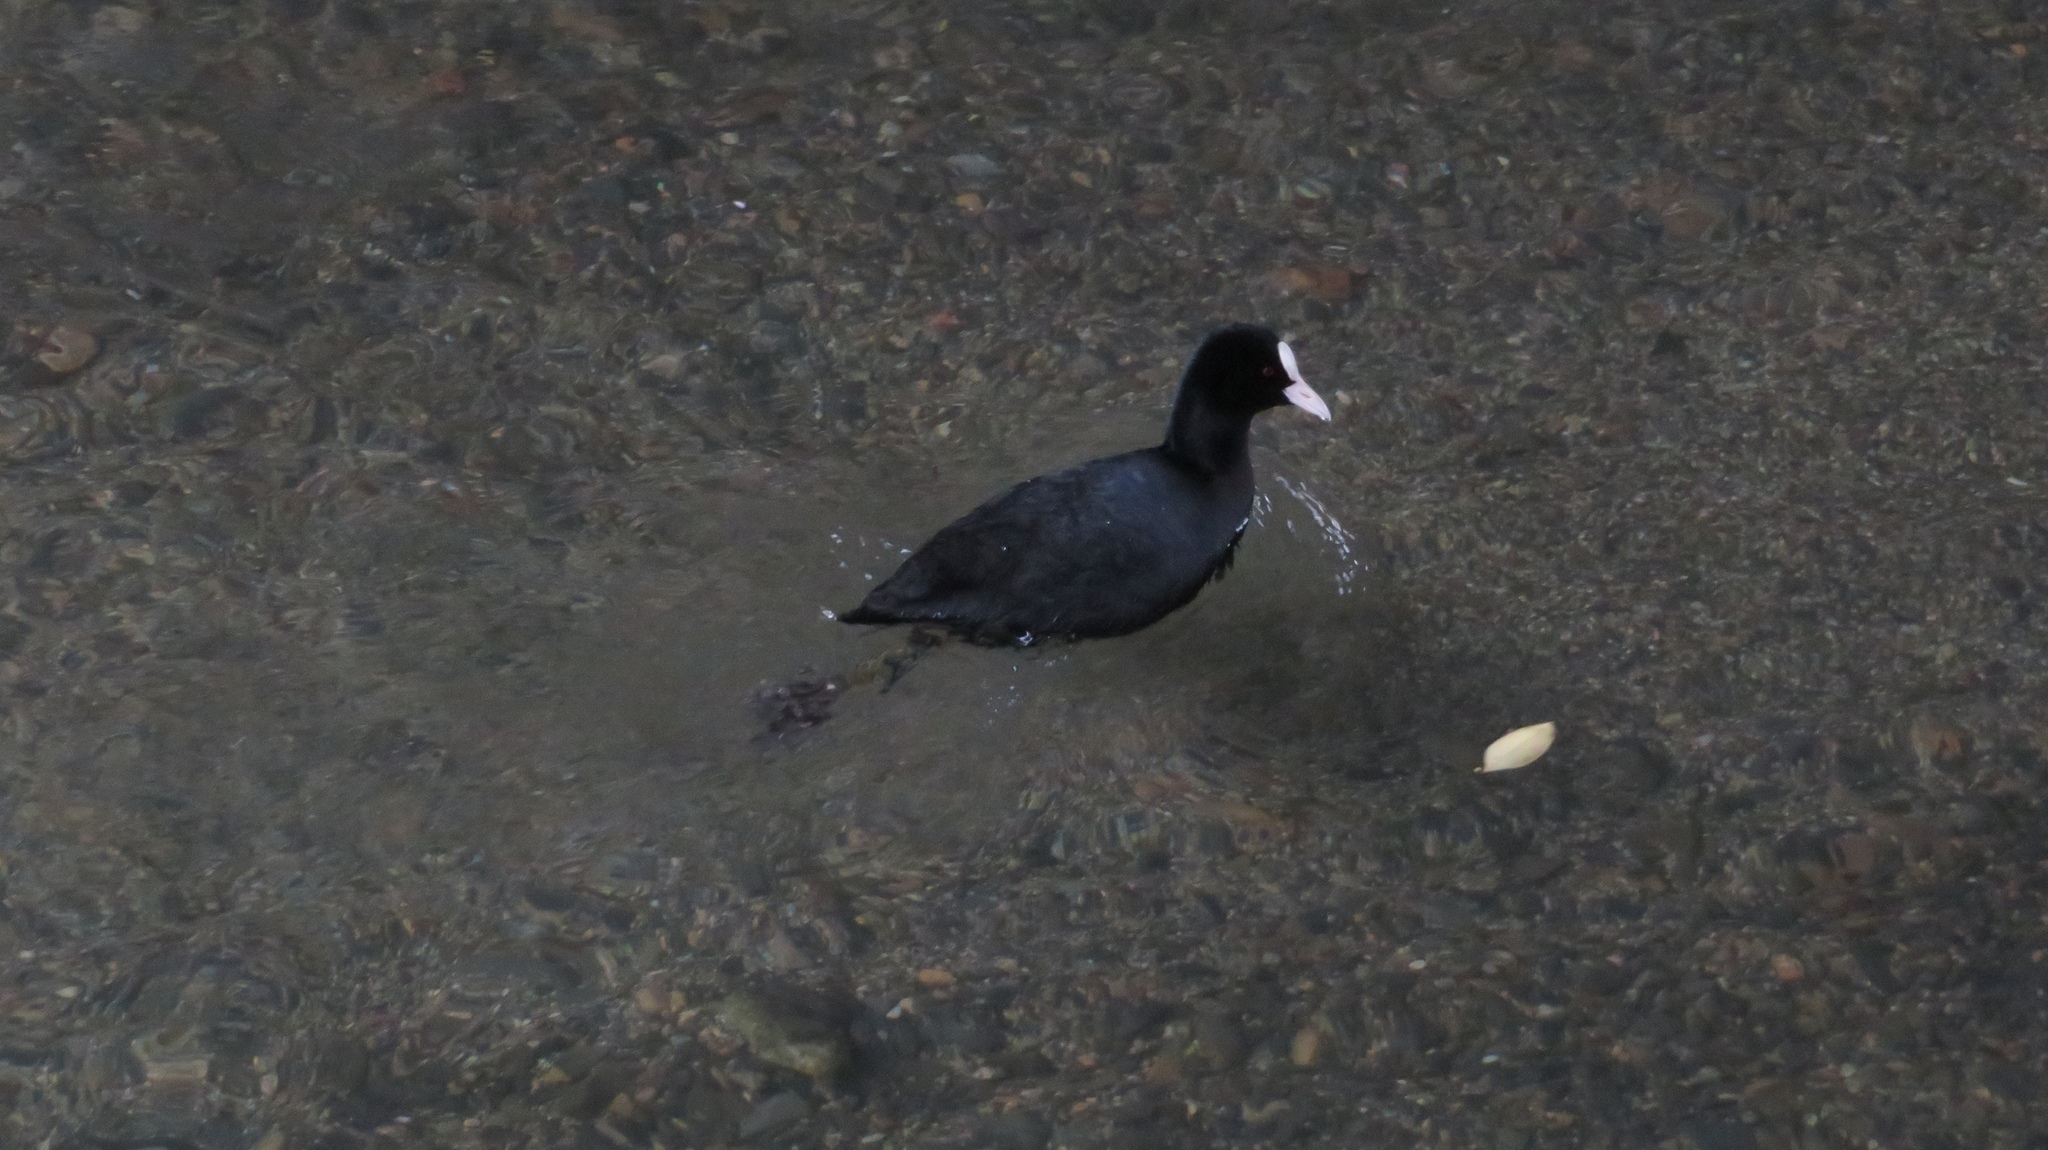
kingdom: Animalia
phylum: Chordata
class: Aves
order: Gruiformes
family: Rallidae
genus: Fulica
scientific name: Fulica atra
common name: Eurasian coot
